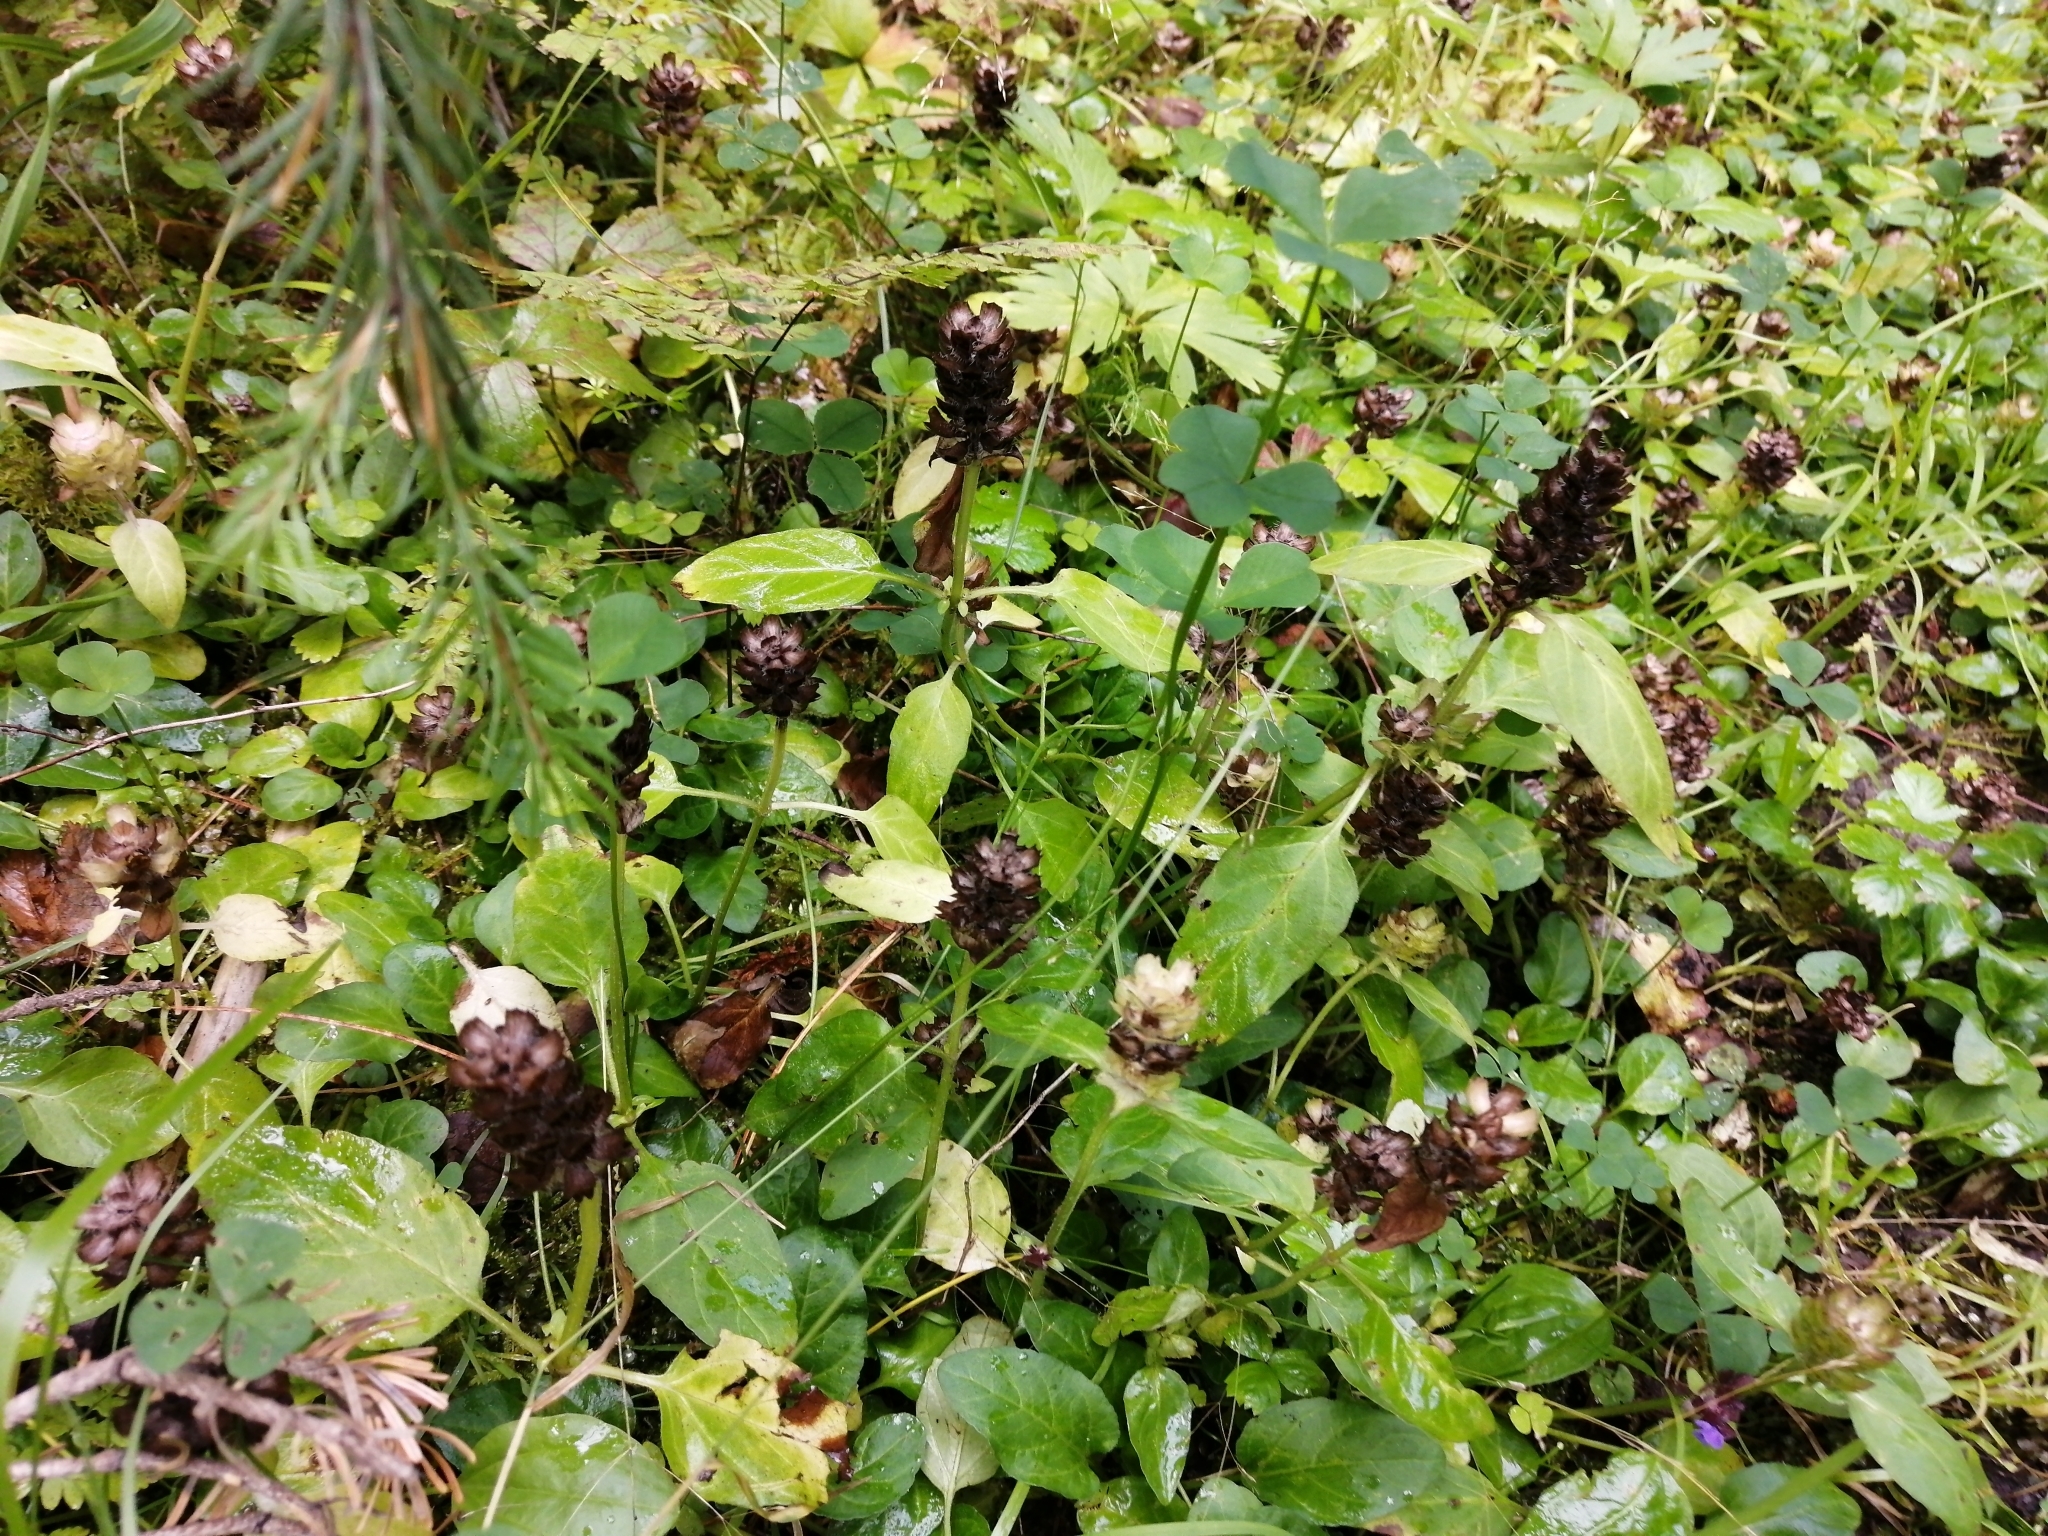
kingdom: Plantae
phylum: Tracheophyta
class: Magnoliopsida
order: Lamiales
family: Lamiaceae
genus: Prunella
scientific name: Prunella vulgaris
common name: Heal-all
